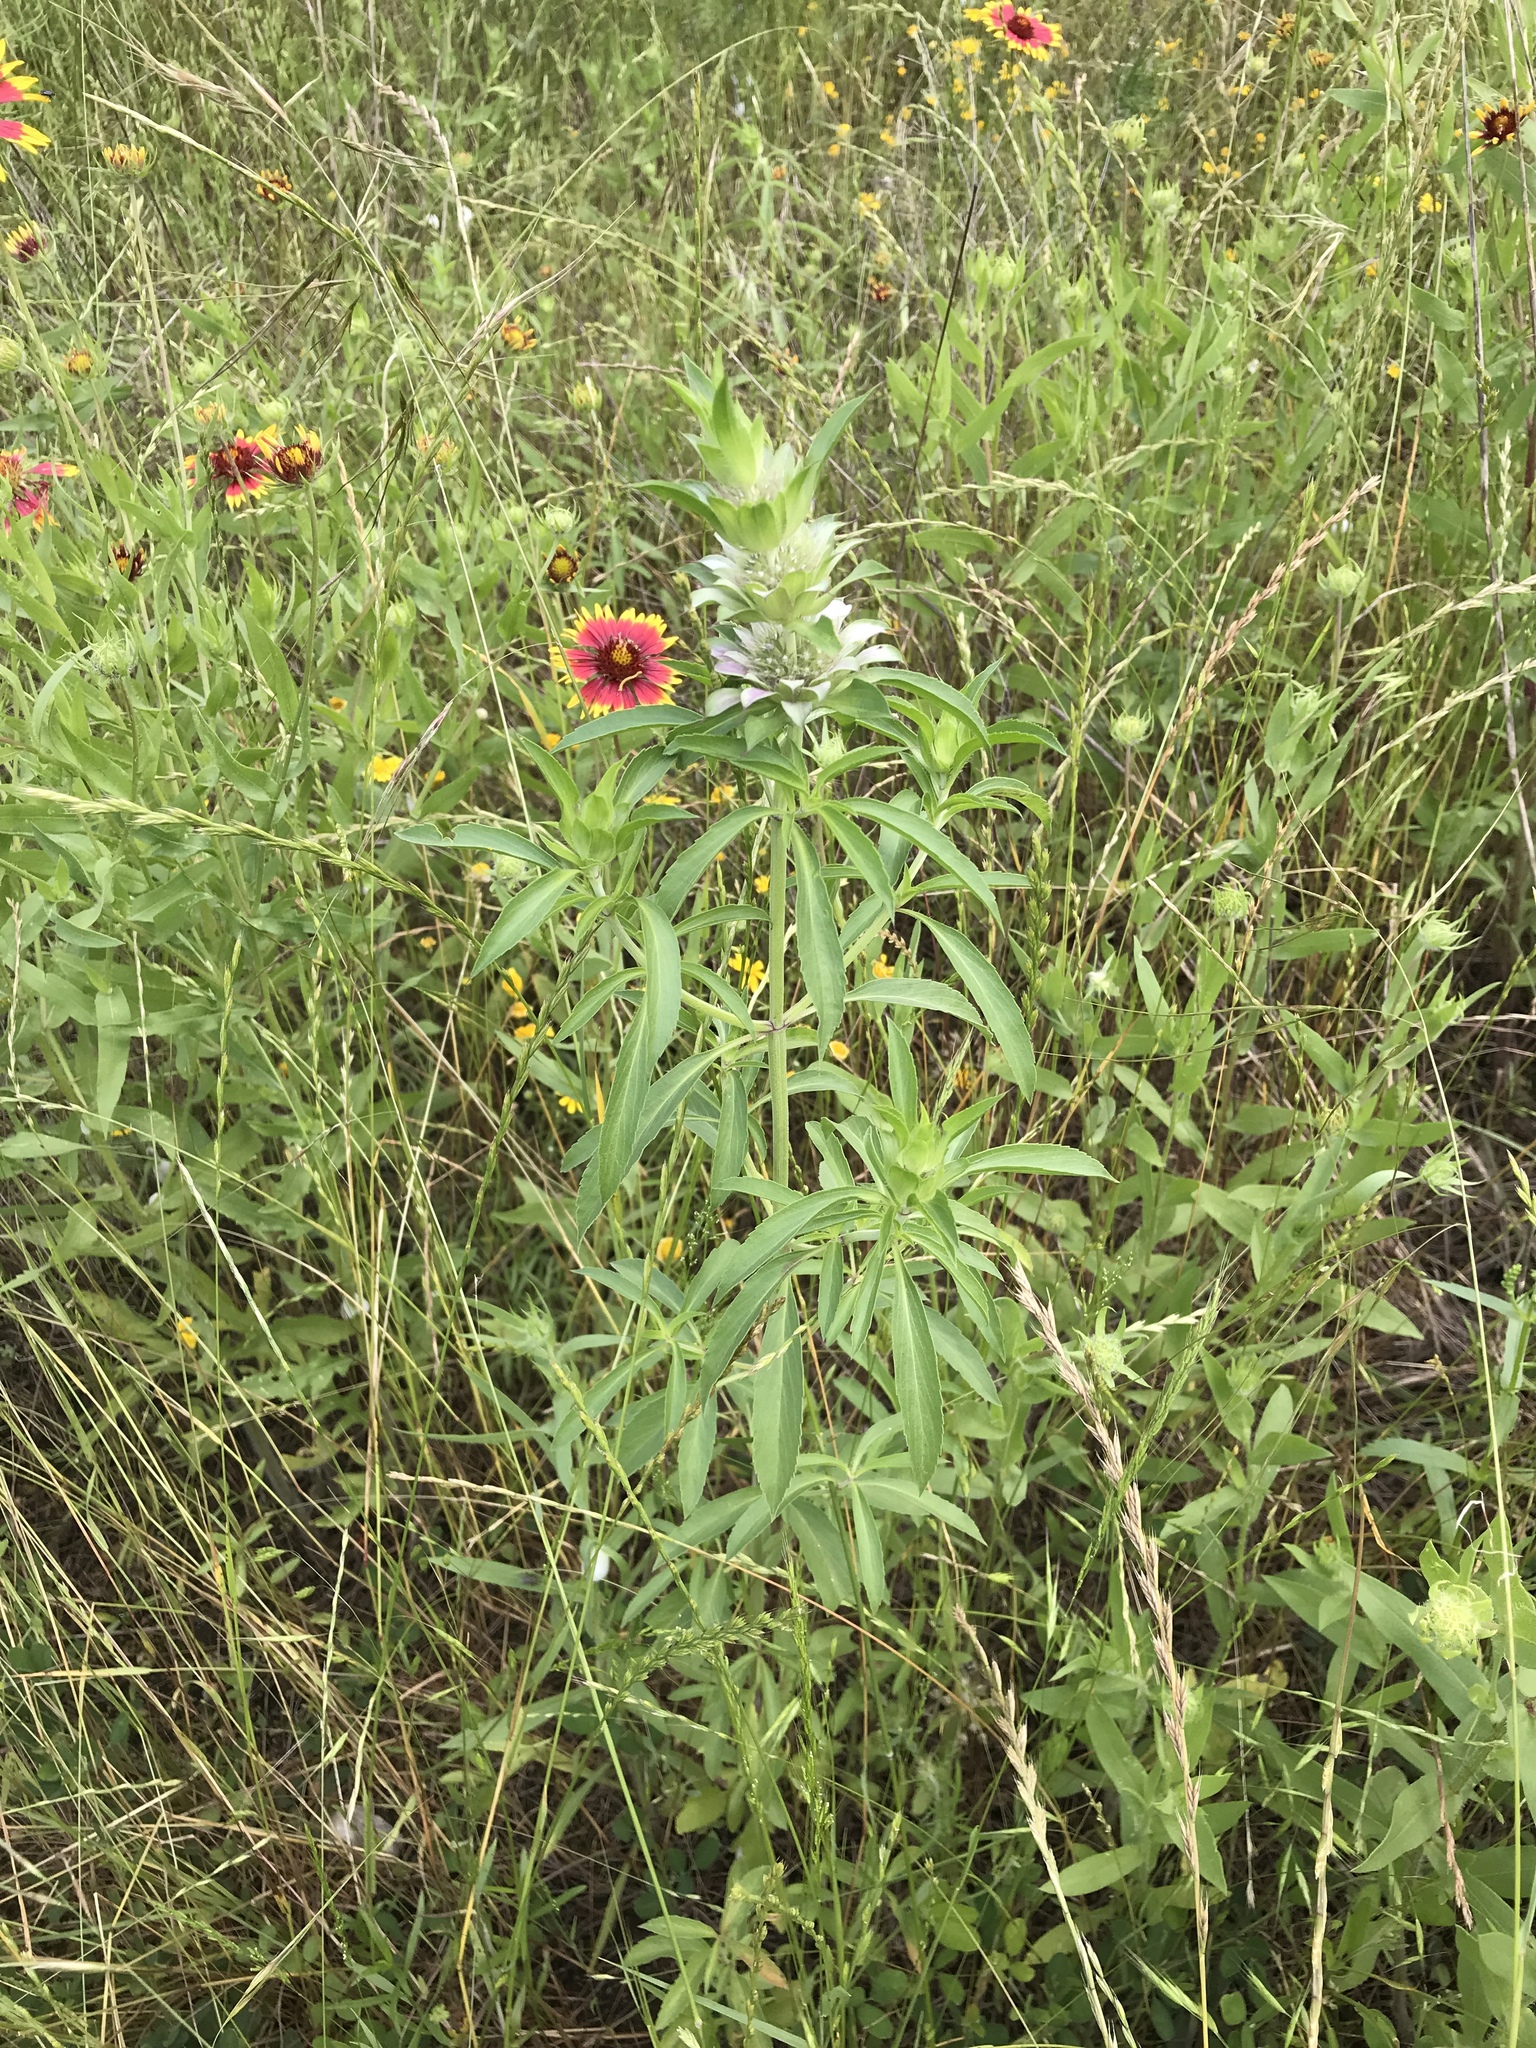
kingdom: Plantae
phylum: Tracheophyta
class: Magnoliopsida
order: Lamiales
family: Lamiaceae
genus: Monarda
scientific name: Monarda citriodora
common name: Lemon beebalm
